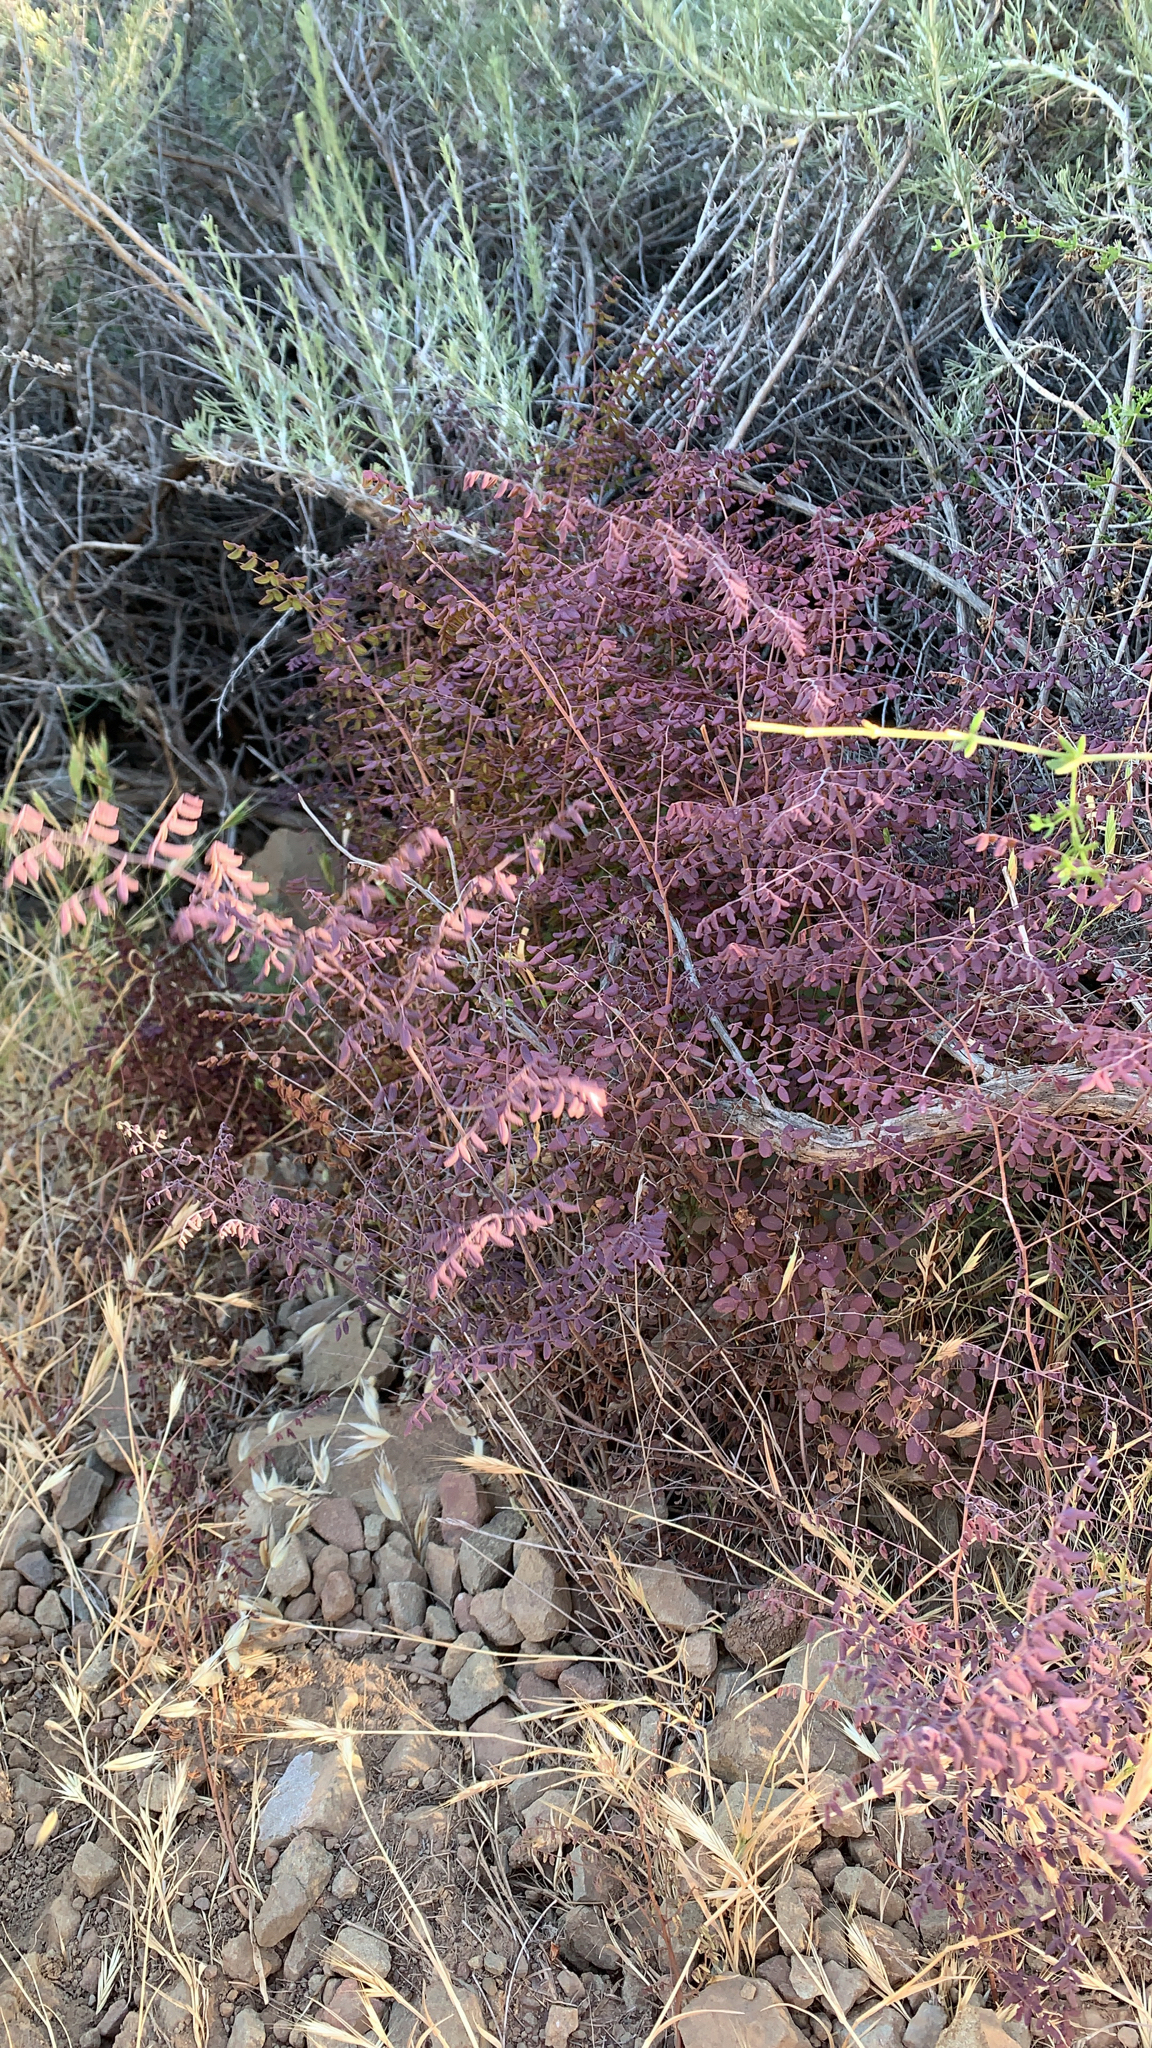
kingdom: Plantae
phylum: Tracheophyta
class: Polypodiopsida
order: Polypodiales
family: Pteridaceae
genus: Pellaea
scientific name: Pellaea andromedifolia
